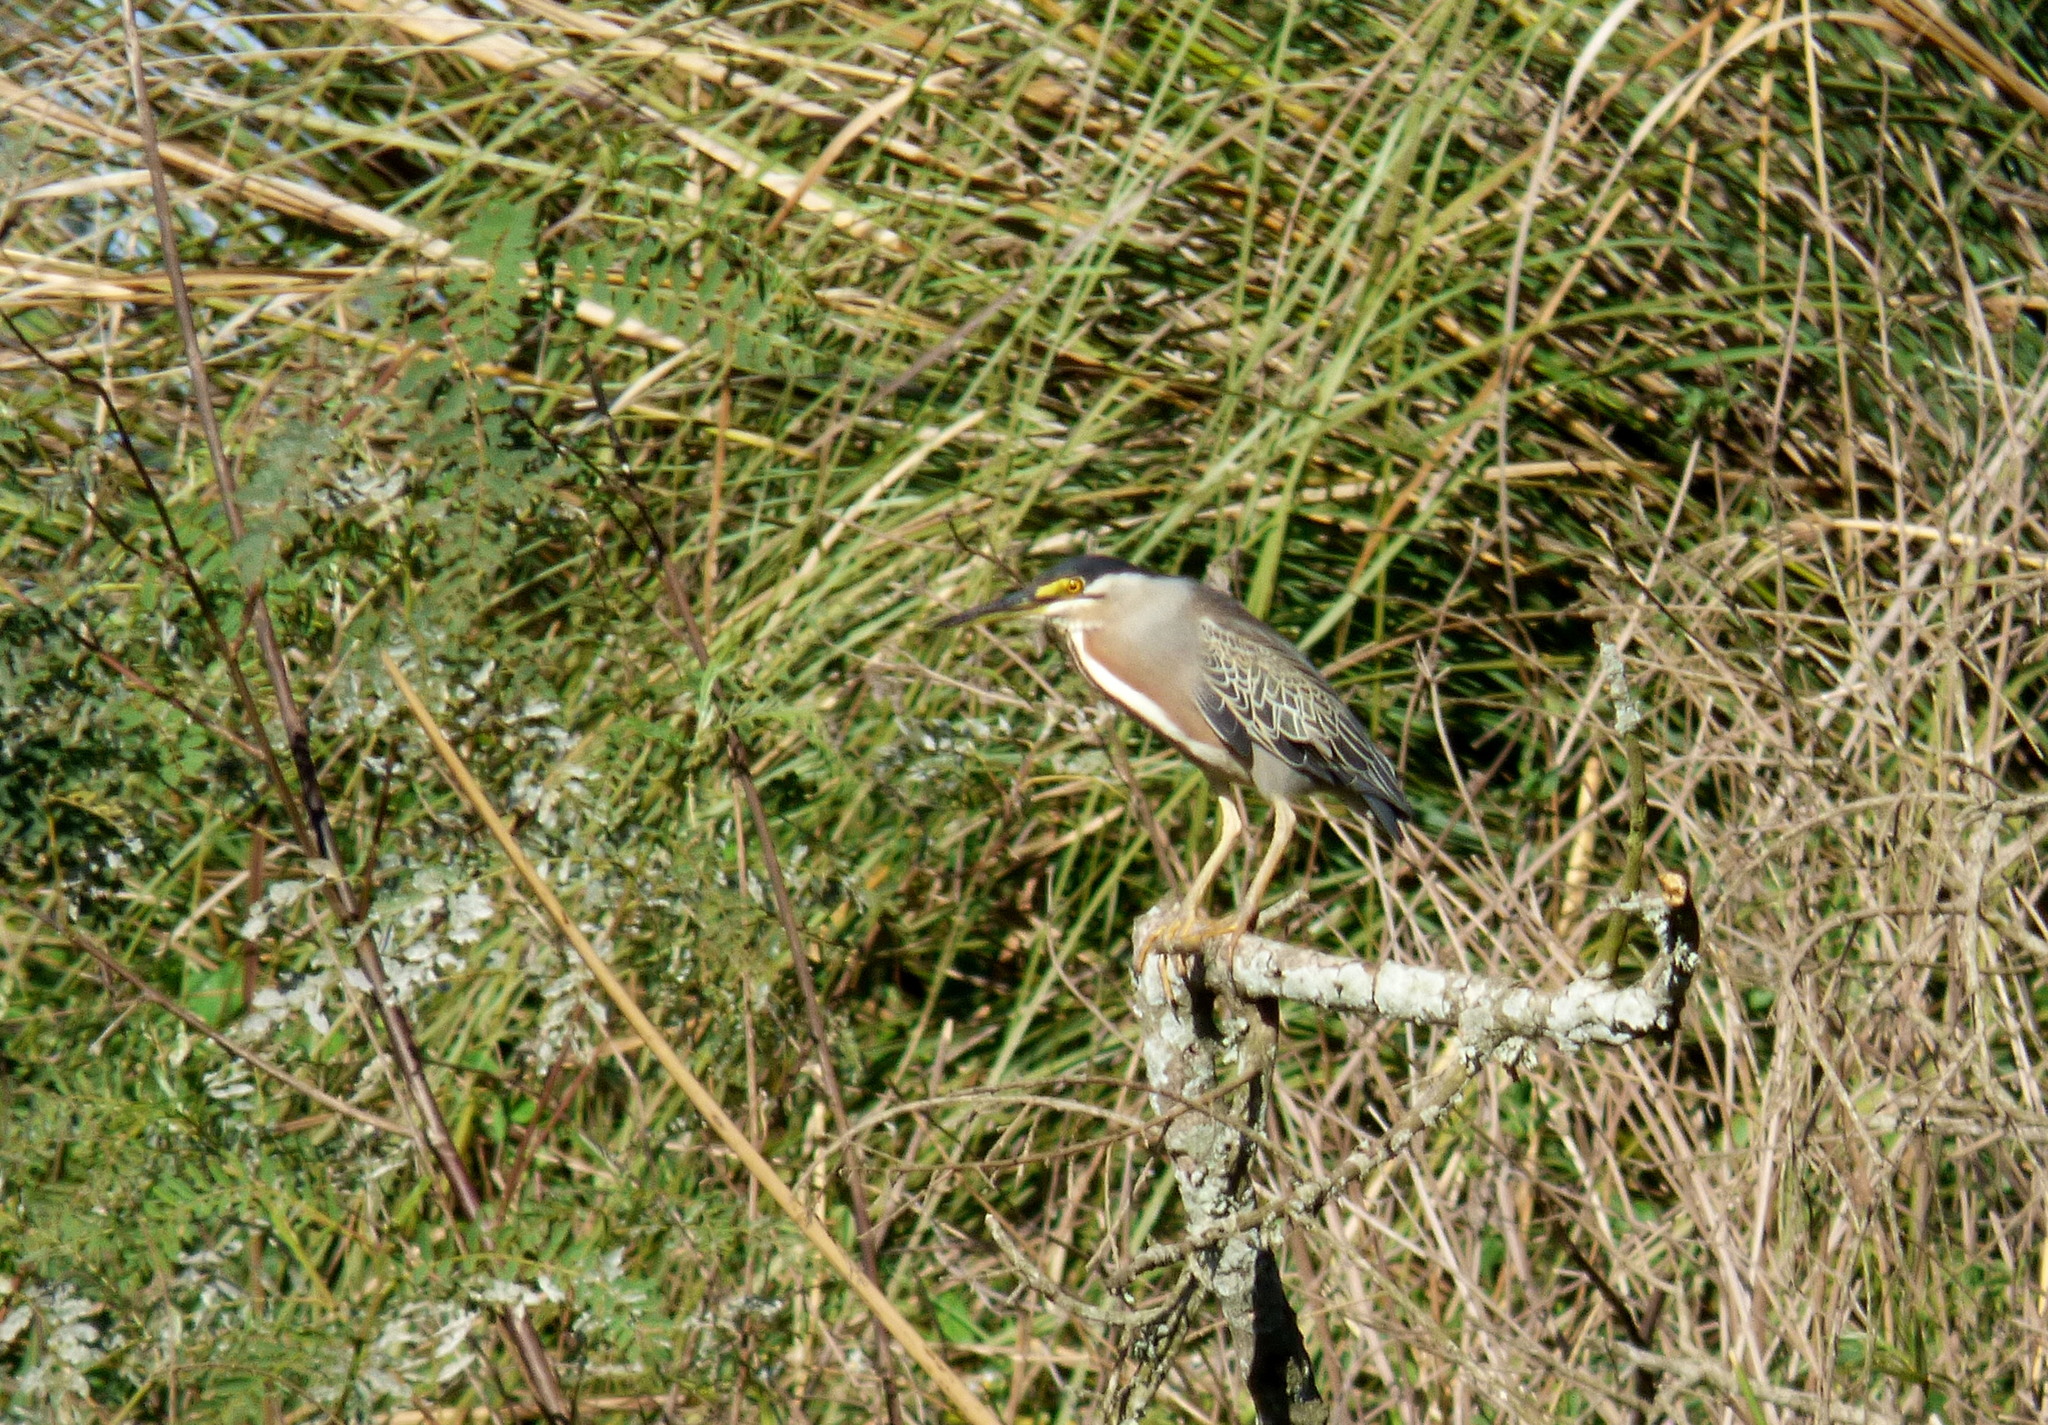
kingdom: Animalia
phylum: Chordata
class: Aves
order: Pelecaniformes
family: Ardeidae
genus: Butorides
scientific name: Butorides striata
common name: Striated heron
